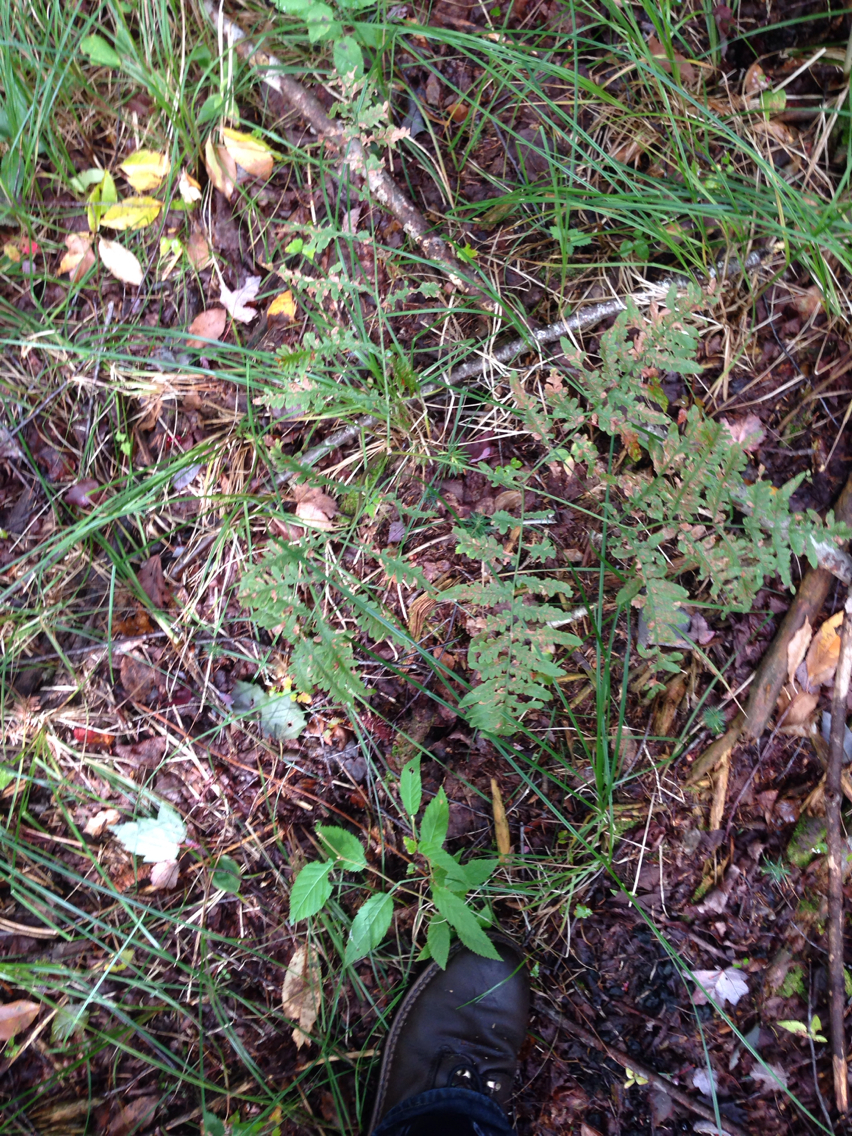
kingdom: Plantae
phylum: Tracheophyta
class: Polypodiopsida
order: Polypodiales
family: Dennstaedtiaceae
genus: Pteridium
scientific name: Pteridium aquilinum
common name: Bracken
